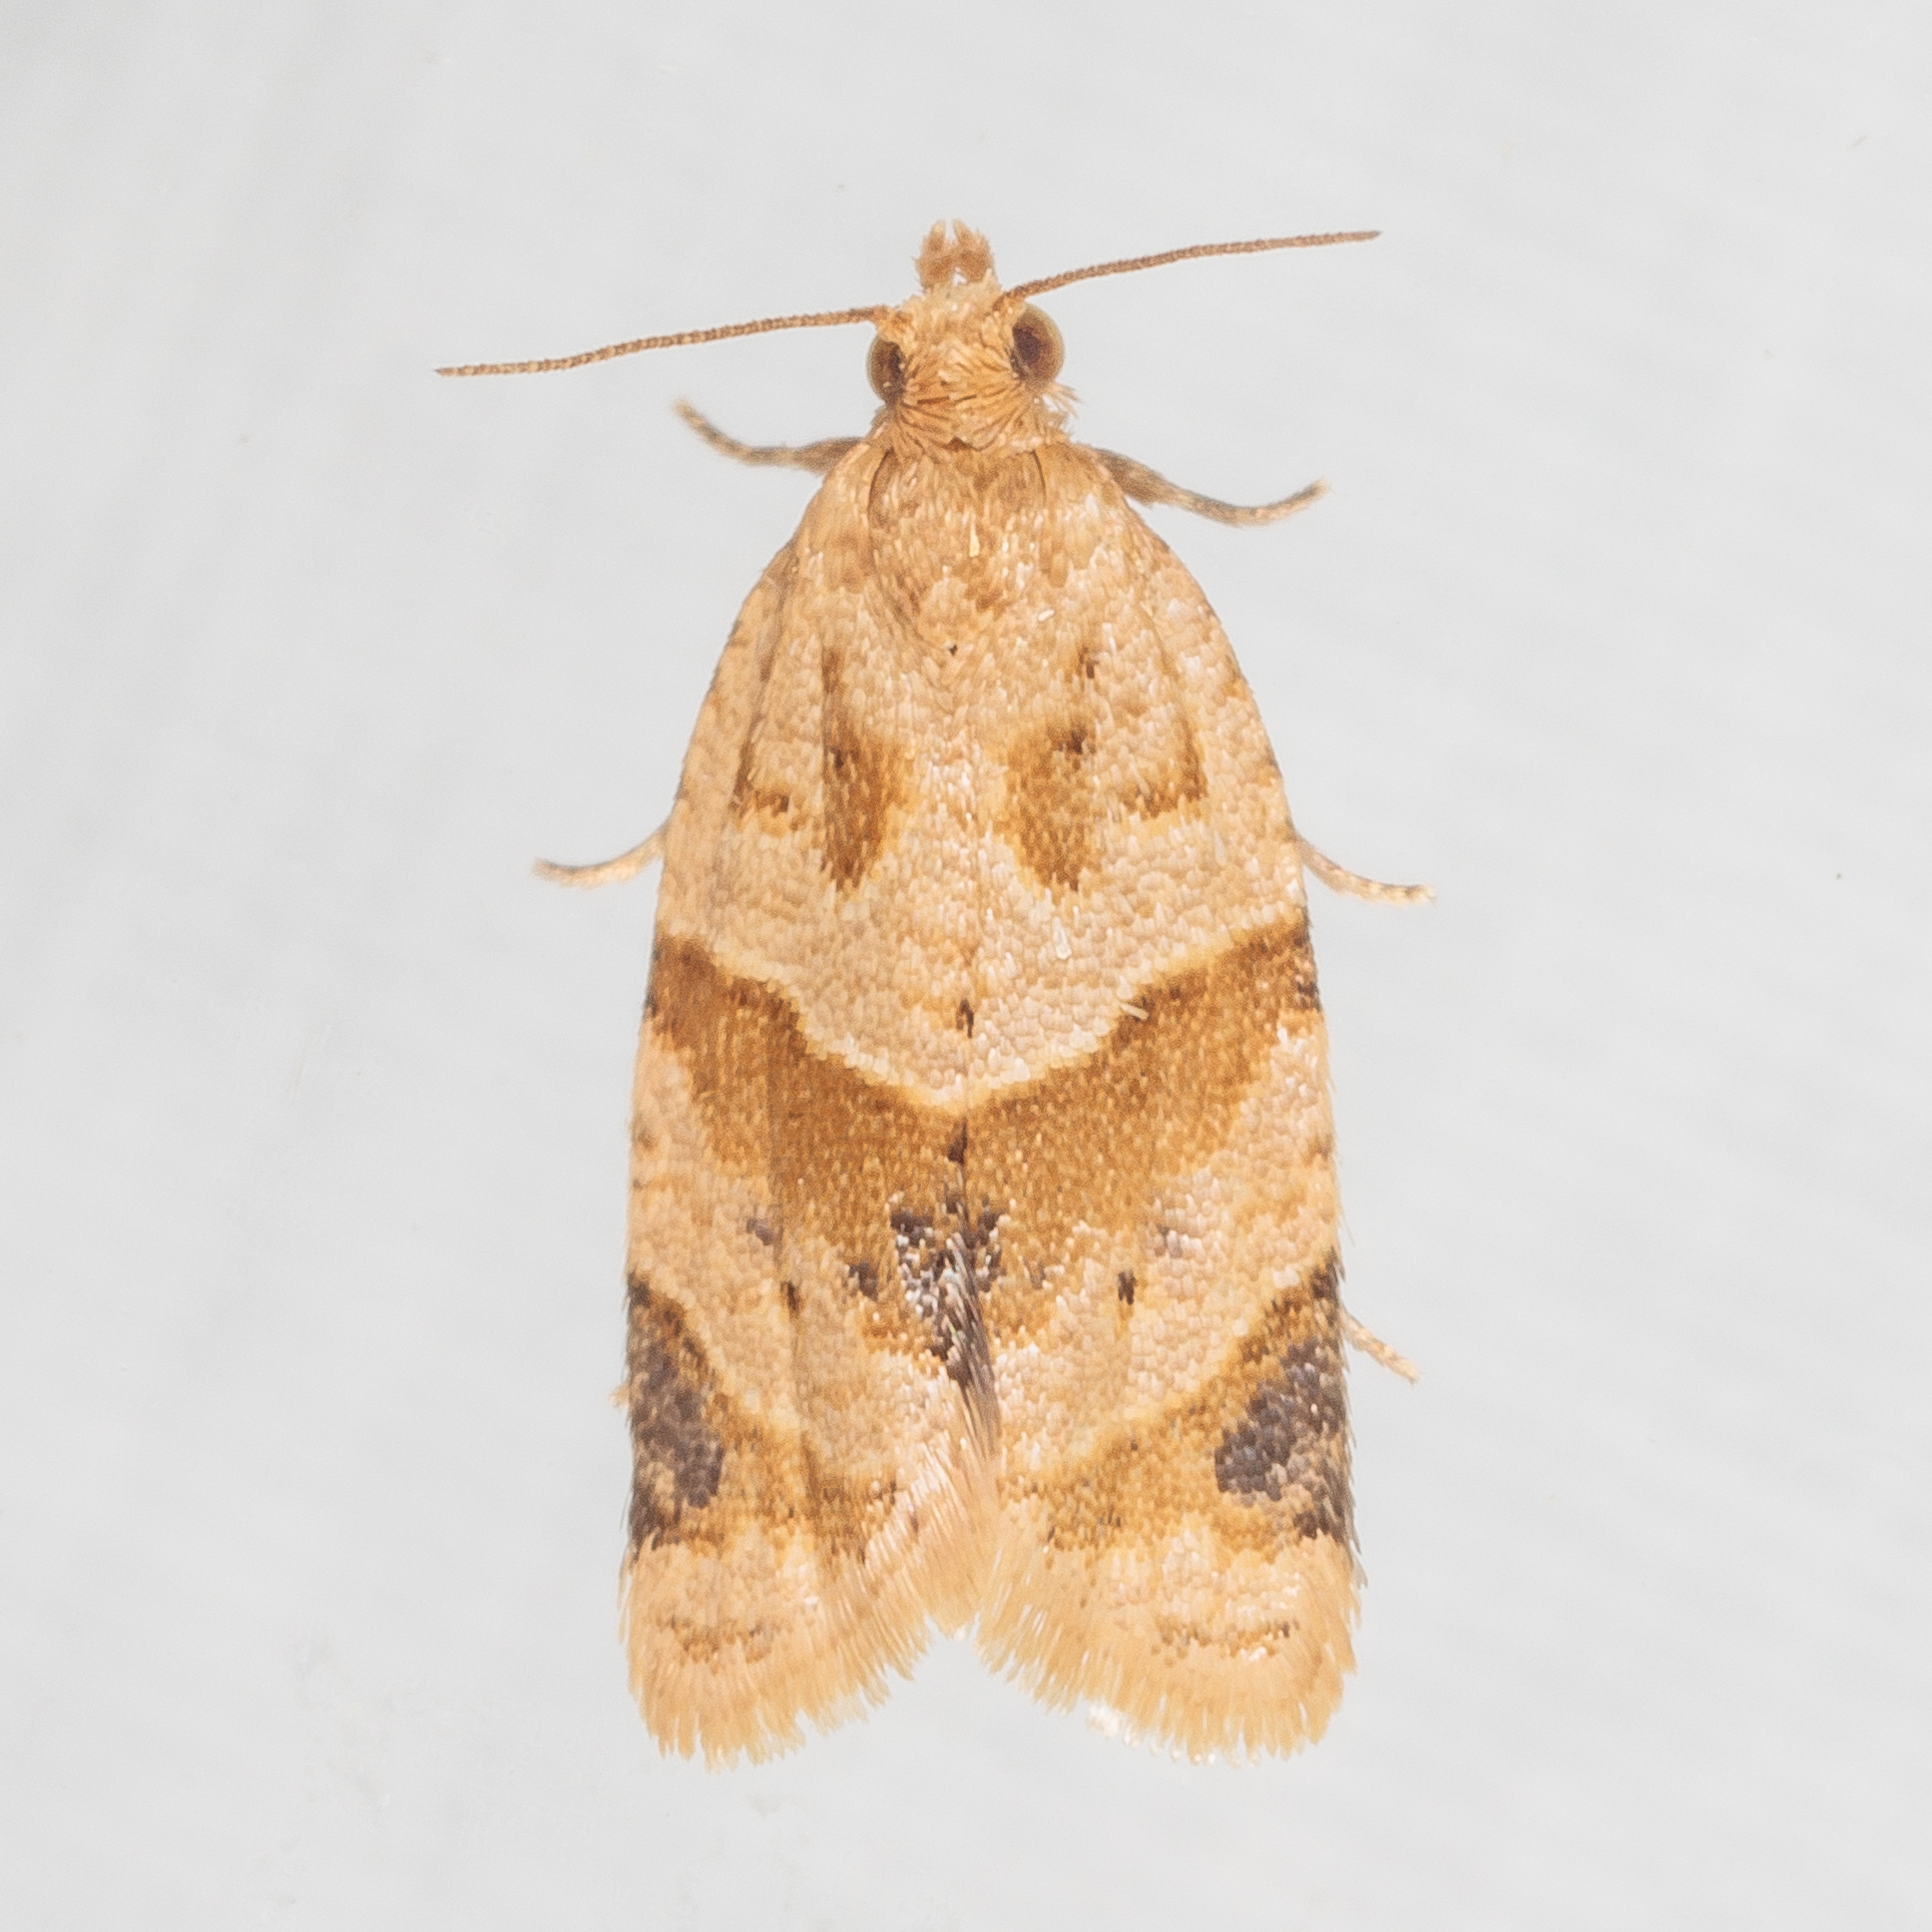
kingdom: Animalia
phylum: Arthropoda
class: Insecta
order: Lepidoptera
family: Tortricidae
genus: Clepsis
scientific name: Clepsis peritana
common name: Garden tortrix
